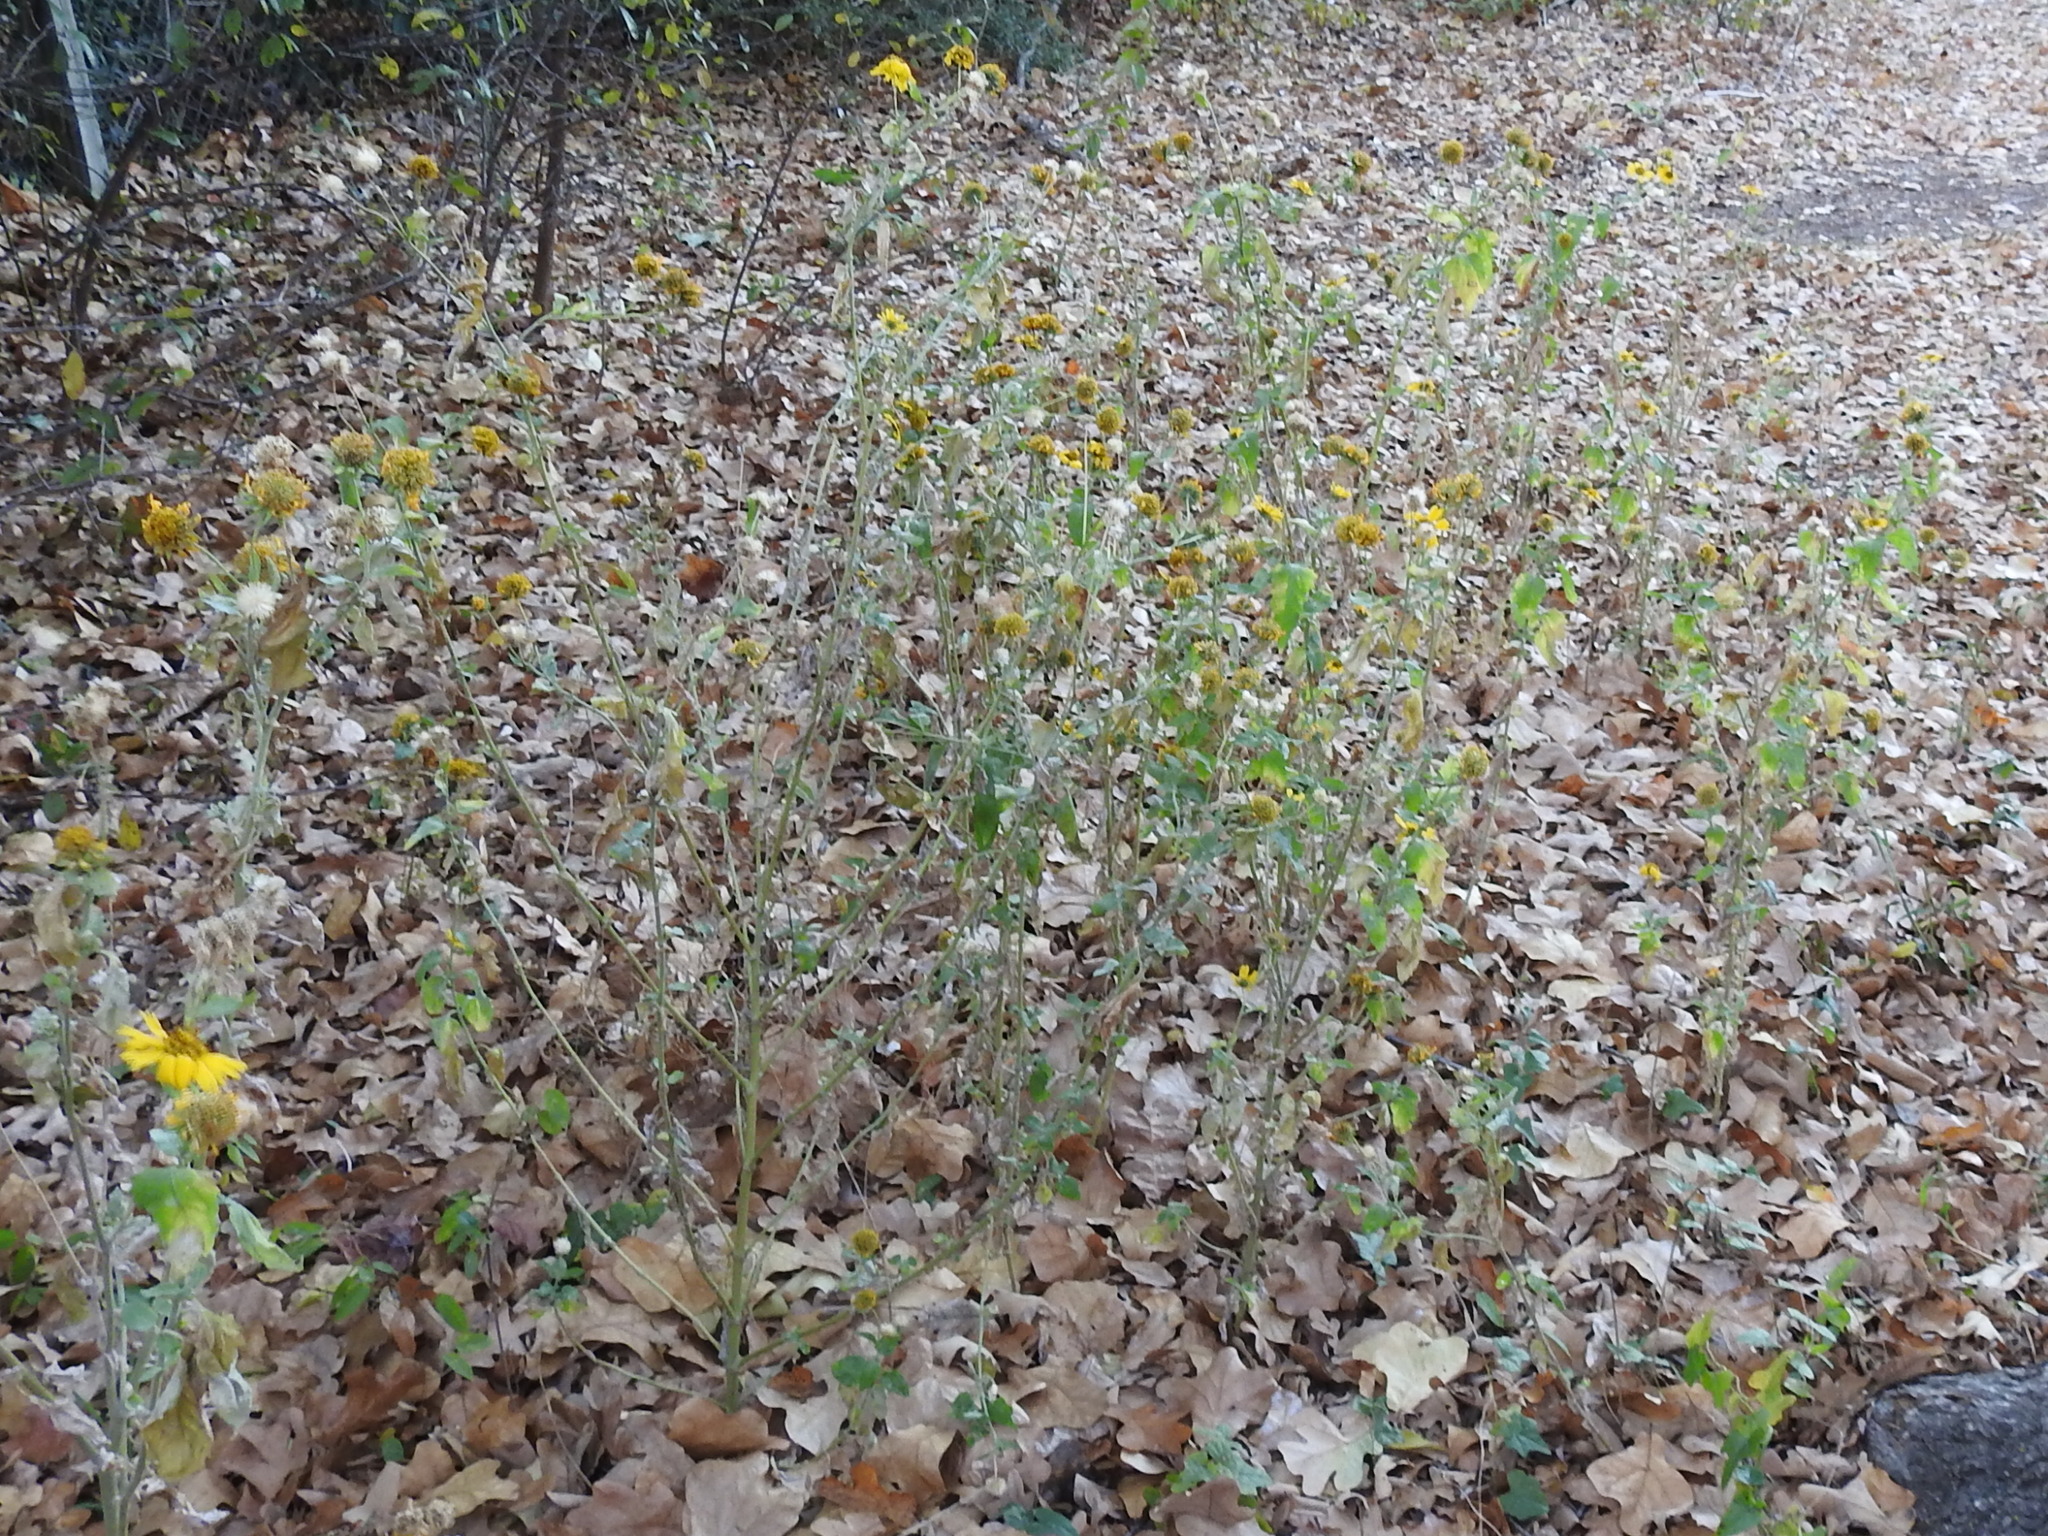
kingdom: Plantae
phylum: Tracheophyta
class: Magnoliopsida
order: Asterales
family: Asteraceae
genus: Verbesina
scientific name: Verbesina encelioides
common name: Golden crownbeard
